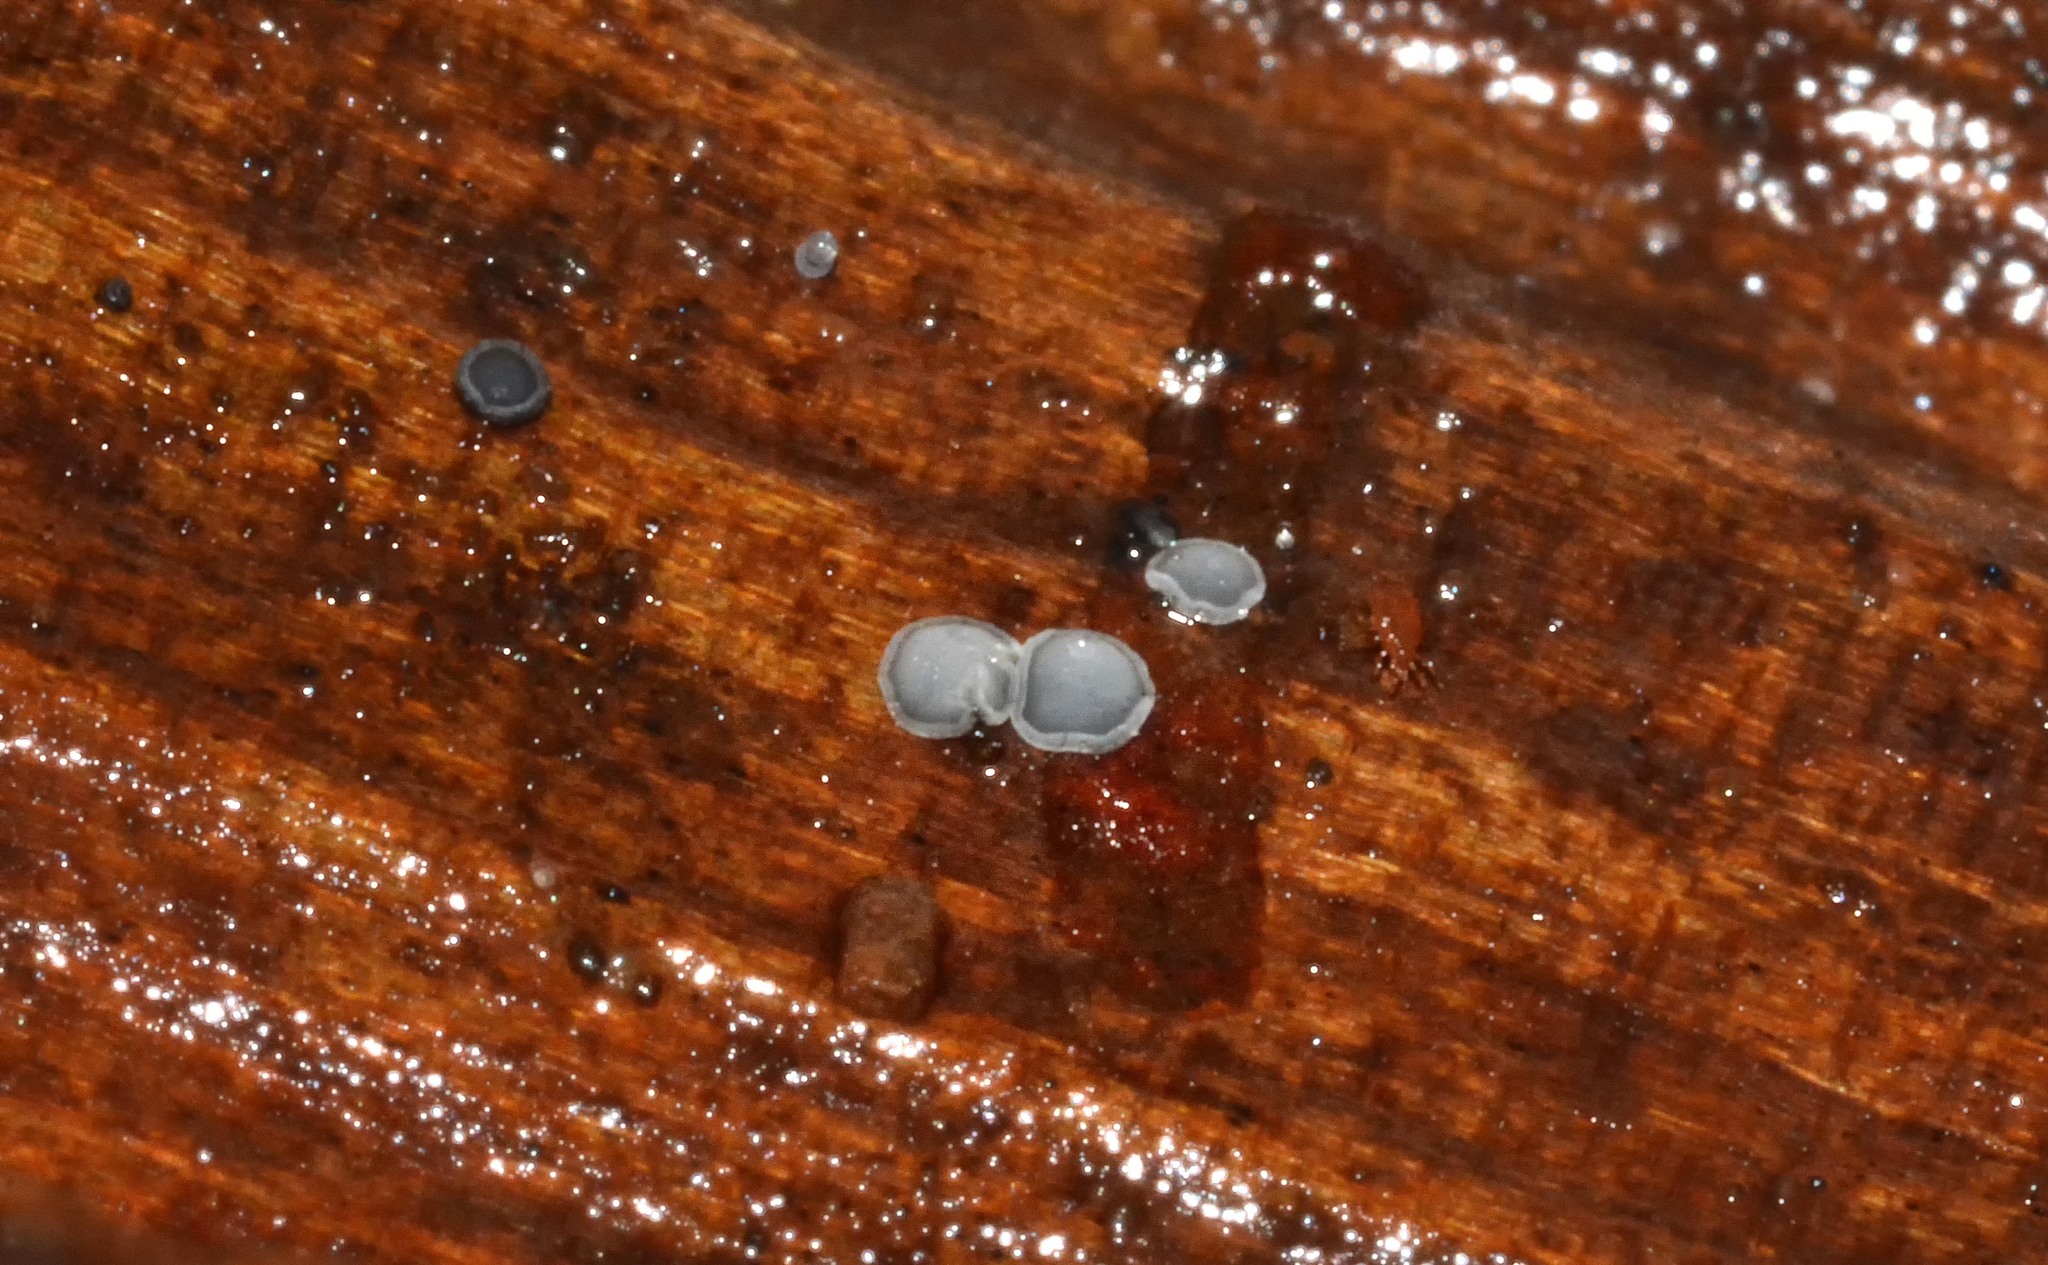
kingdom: Fungi
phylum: Ascomycota
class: Leotiomycetes
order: Helotiales
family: Mollisiaceae
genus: Mollisia
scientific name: Mollisia
